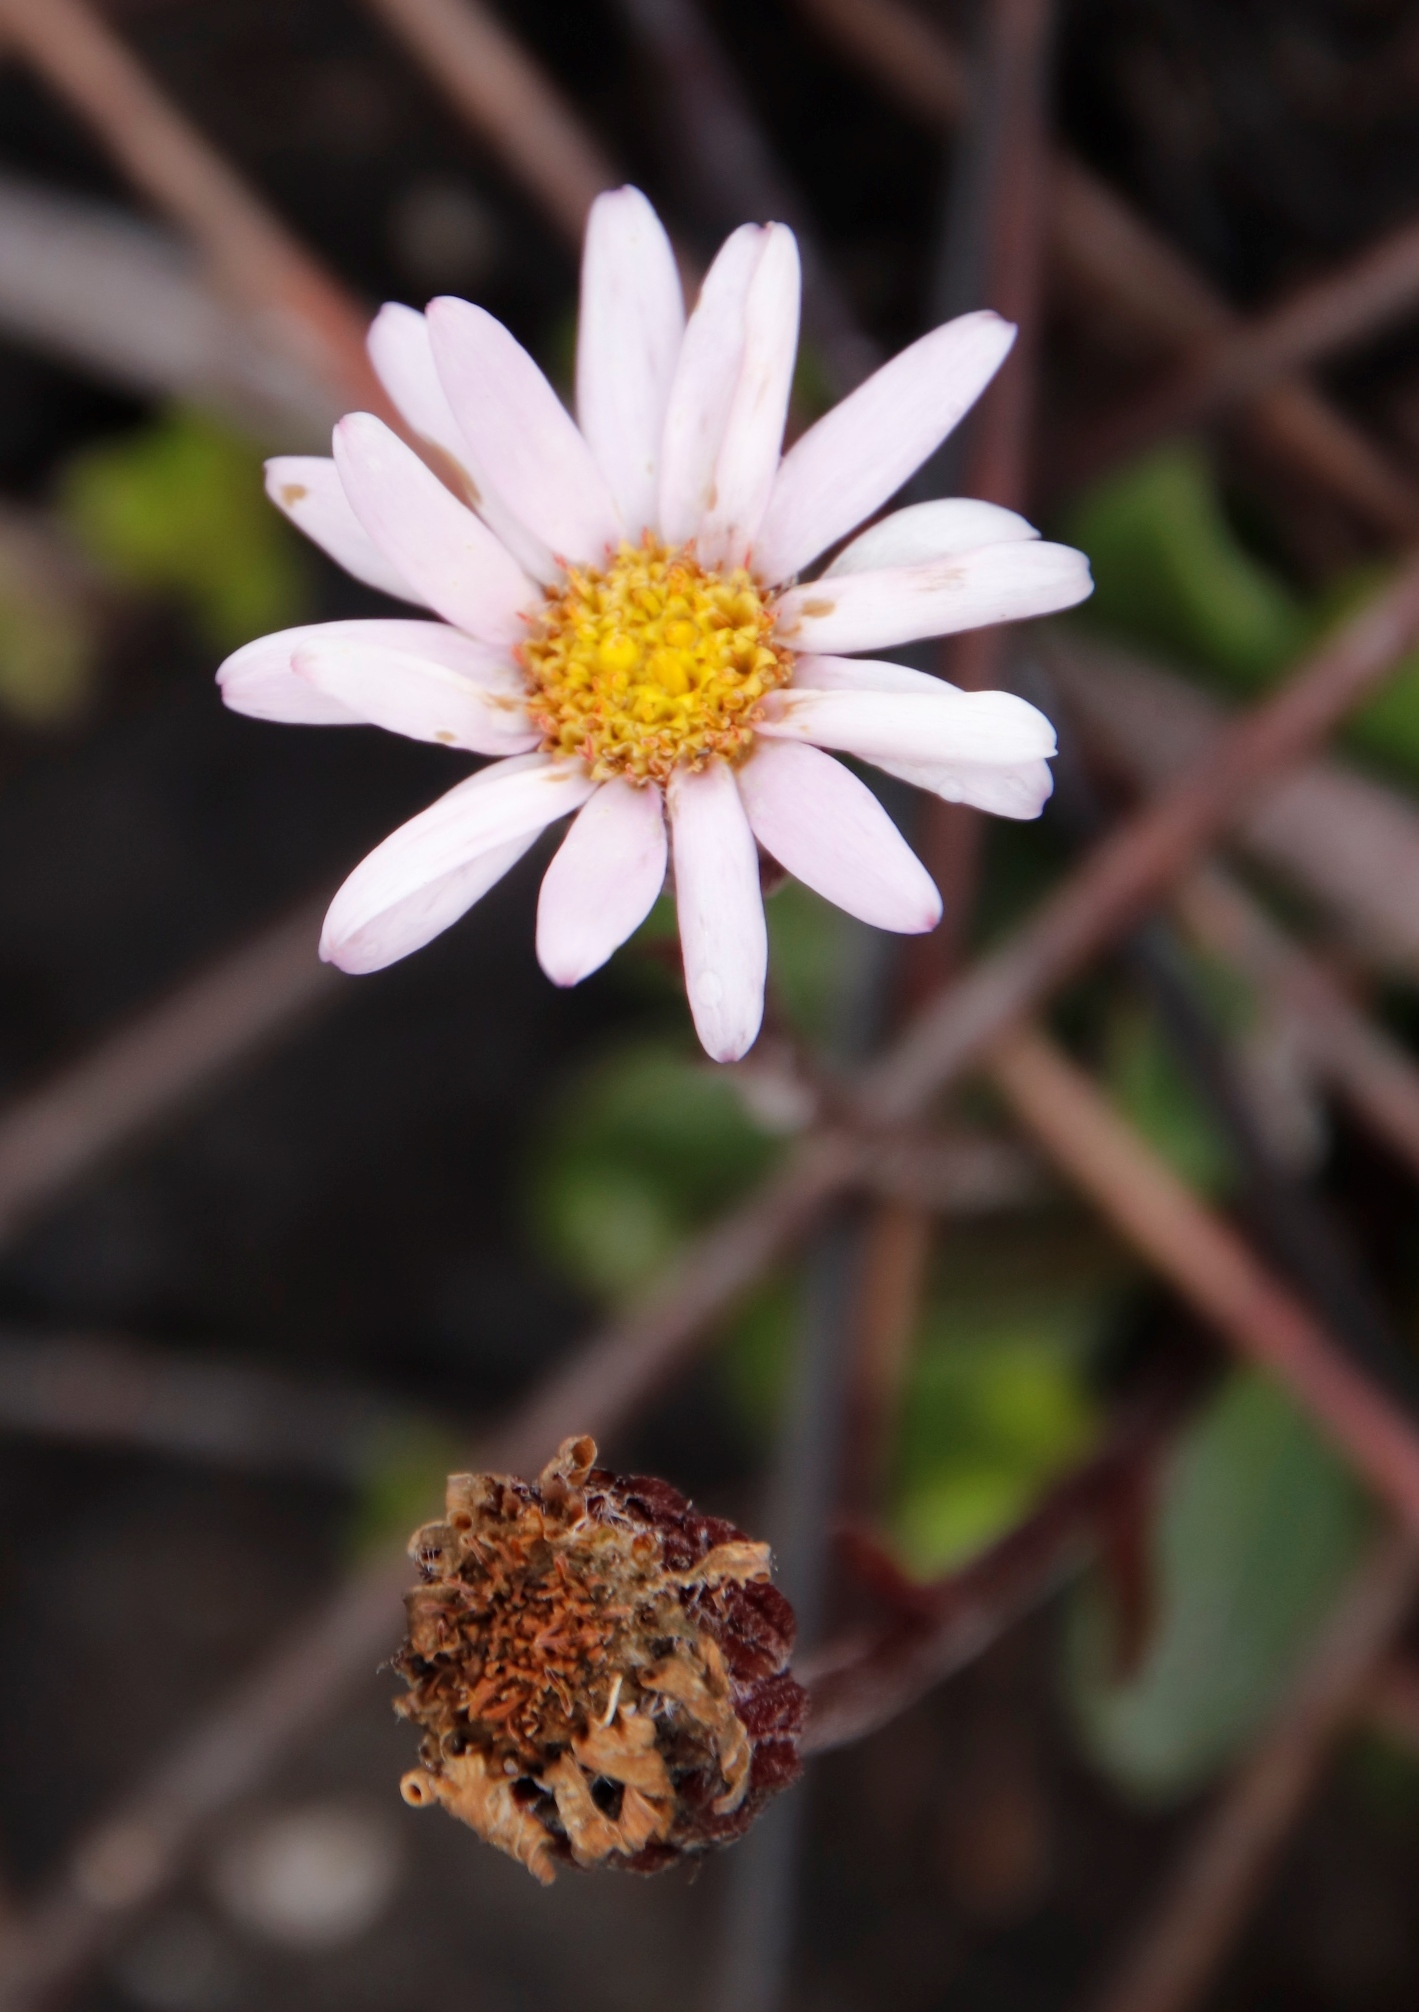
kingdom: Plantae
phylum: Tracheophyta
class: Magnoliopsida
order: Asterales
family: Asteraceae
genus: Zyrphelis
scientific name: Zyrphelis crenata
